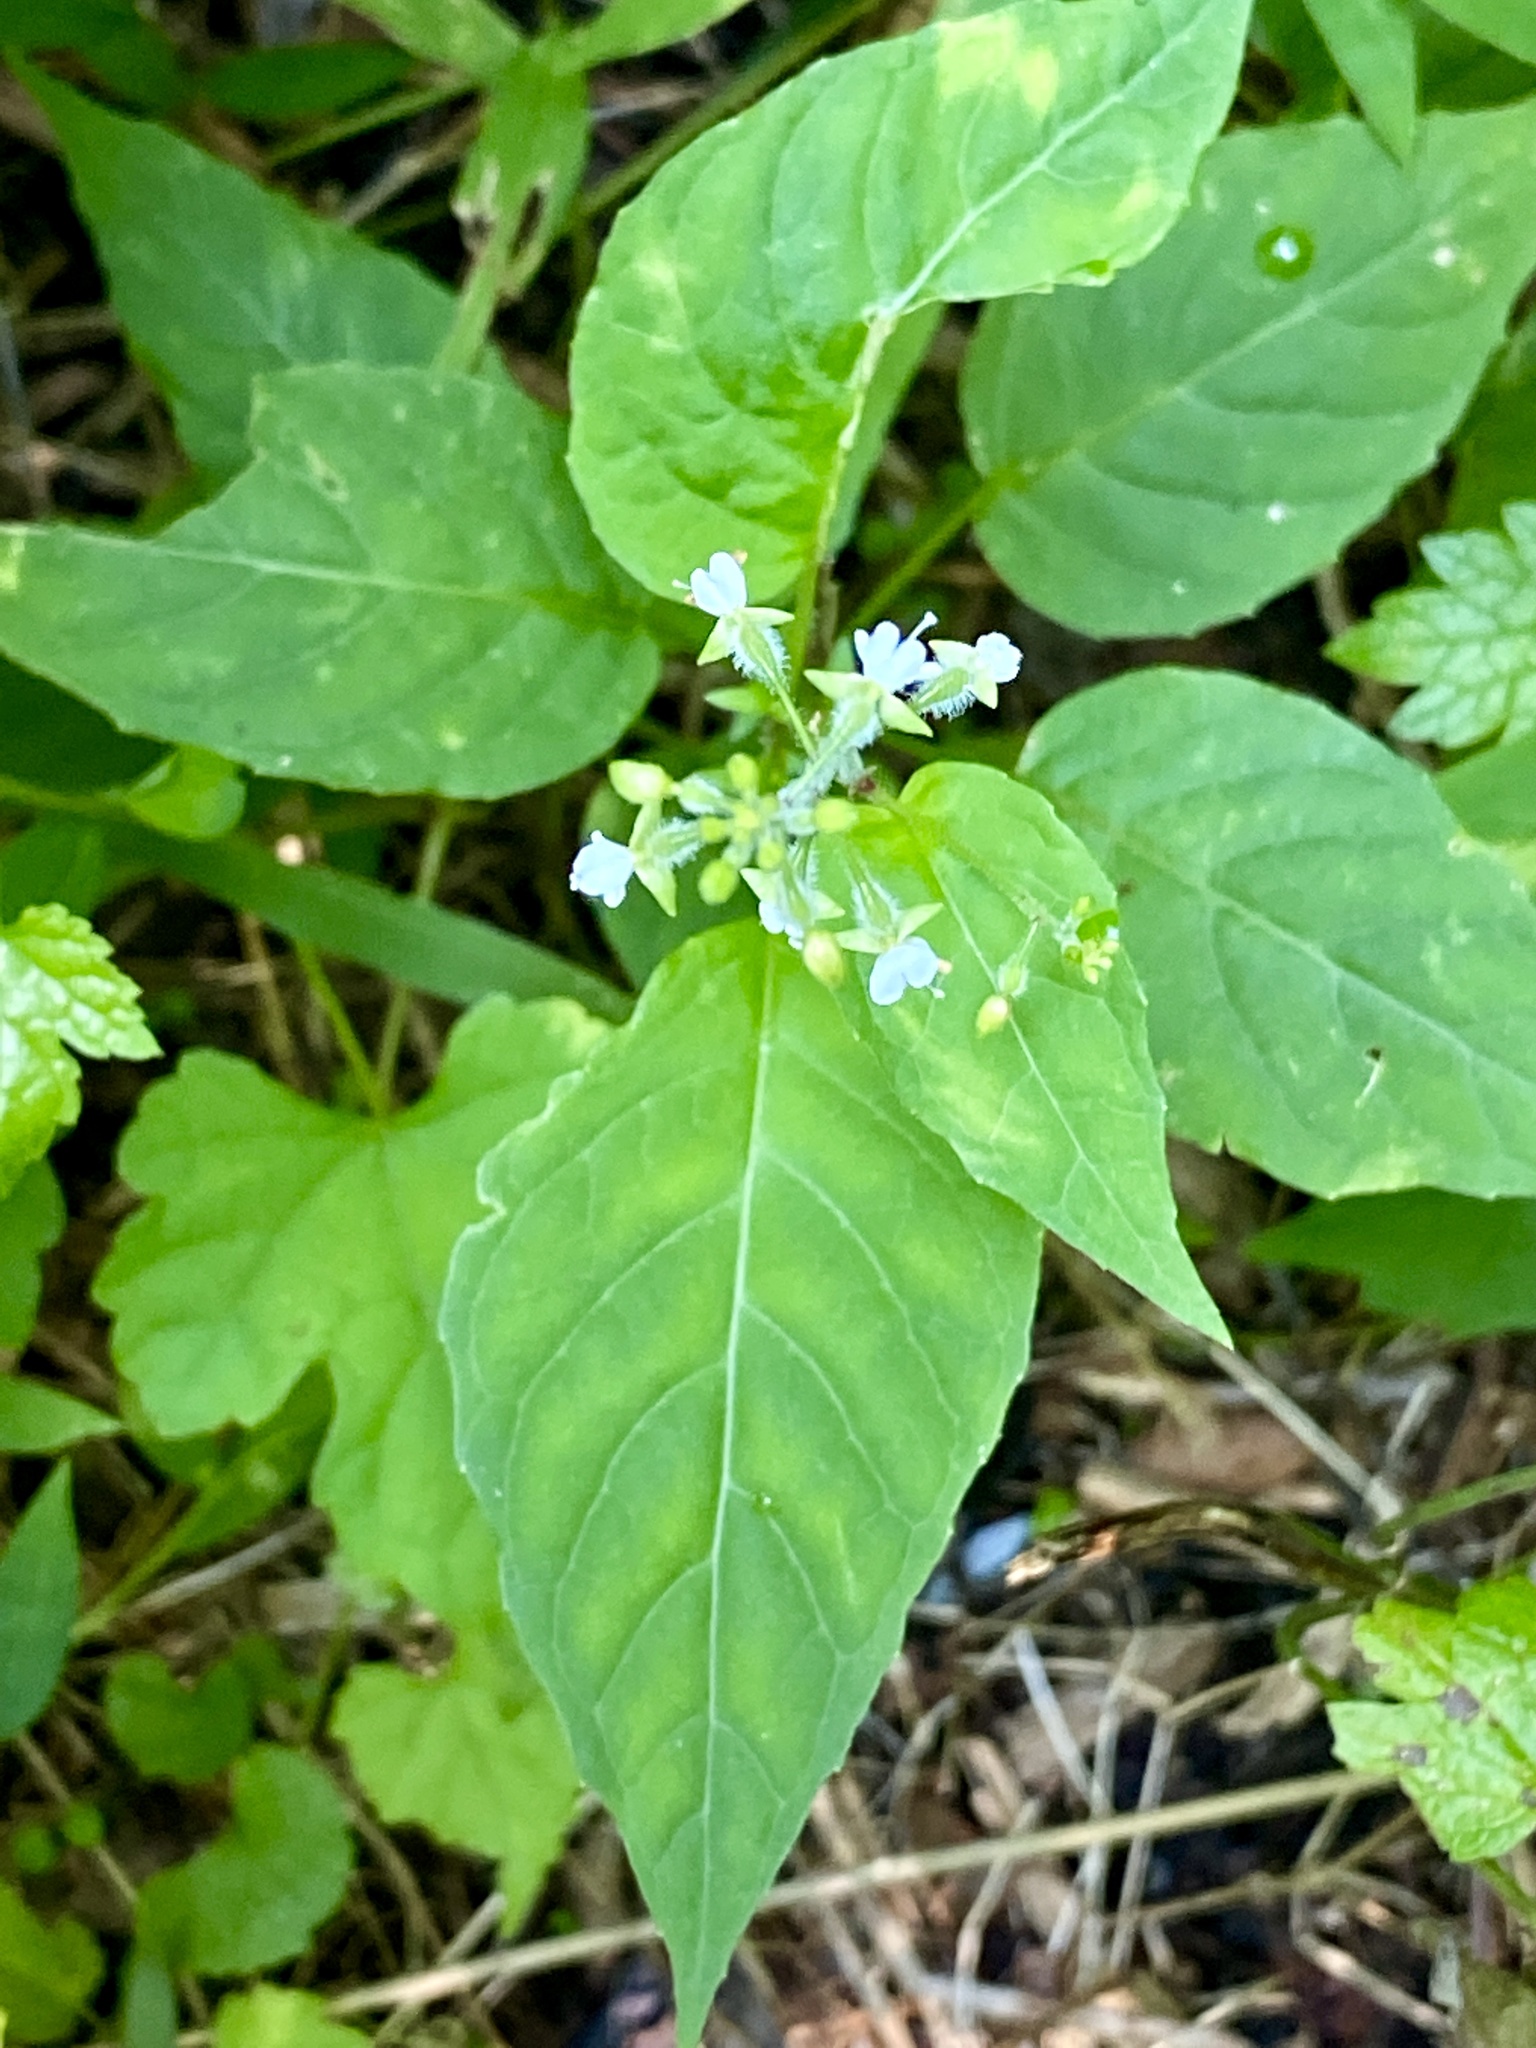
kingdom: Plantae
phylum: Tracheophyta
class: Magnoliopsida
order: Myrtales
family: Onagraceae
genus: Circaea
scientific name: Circaea canadensis
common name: Broad-leaved enchanter's nightshade
